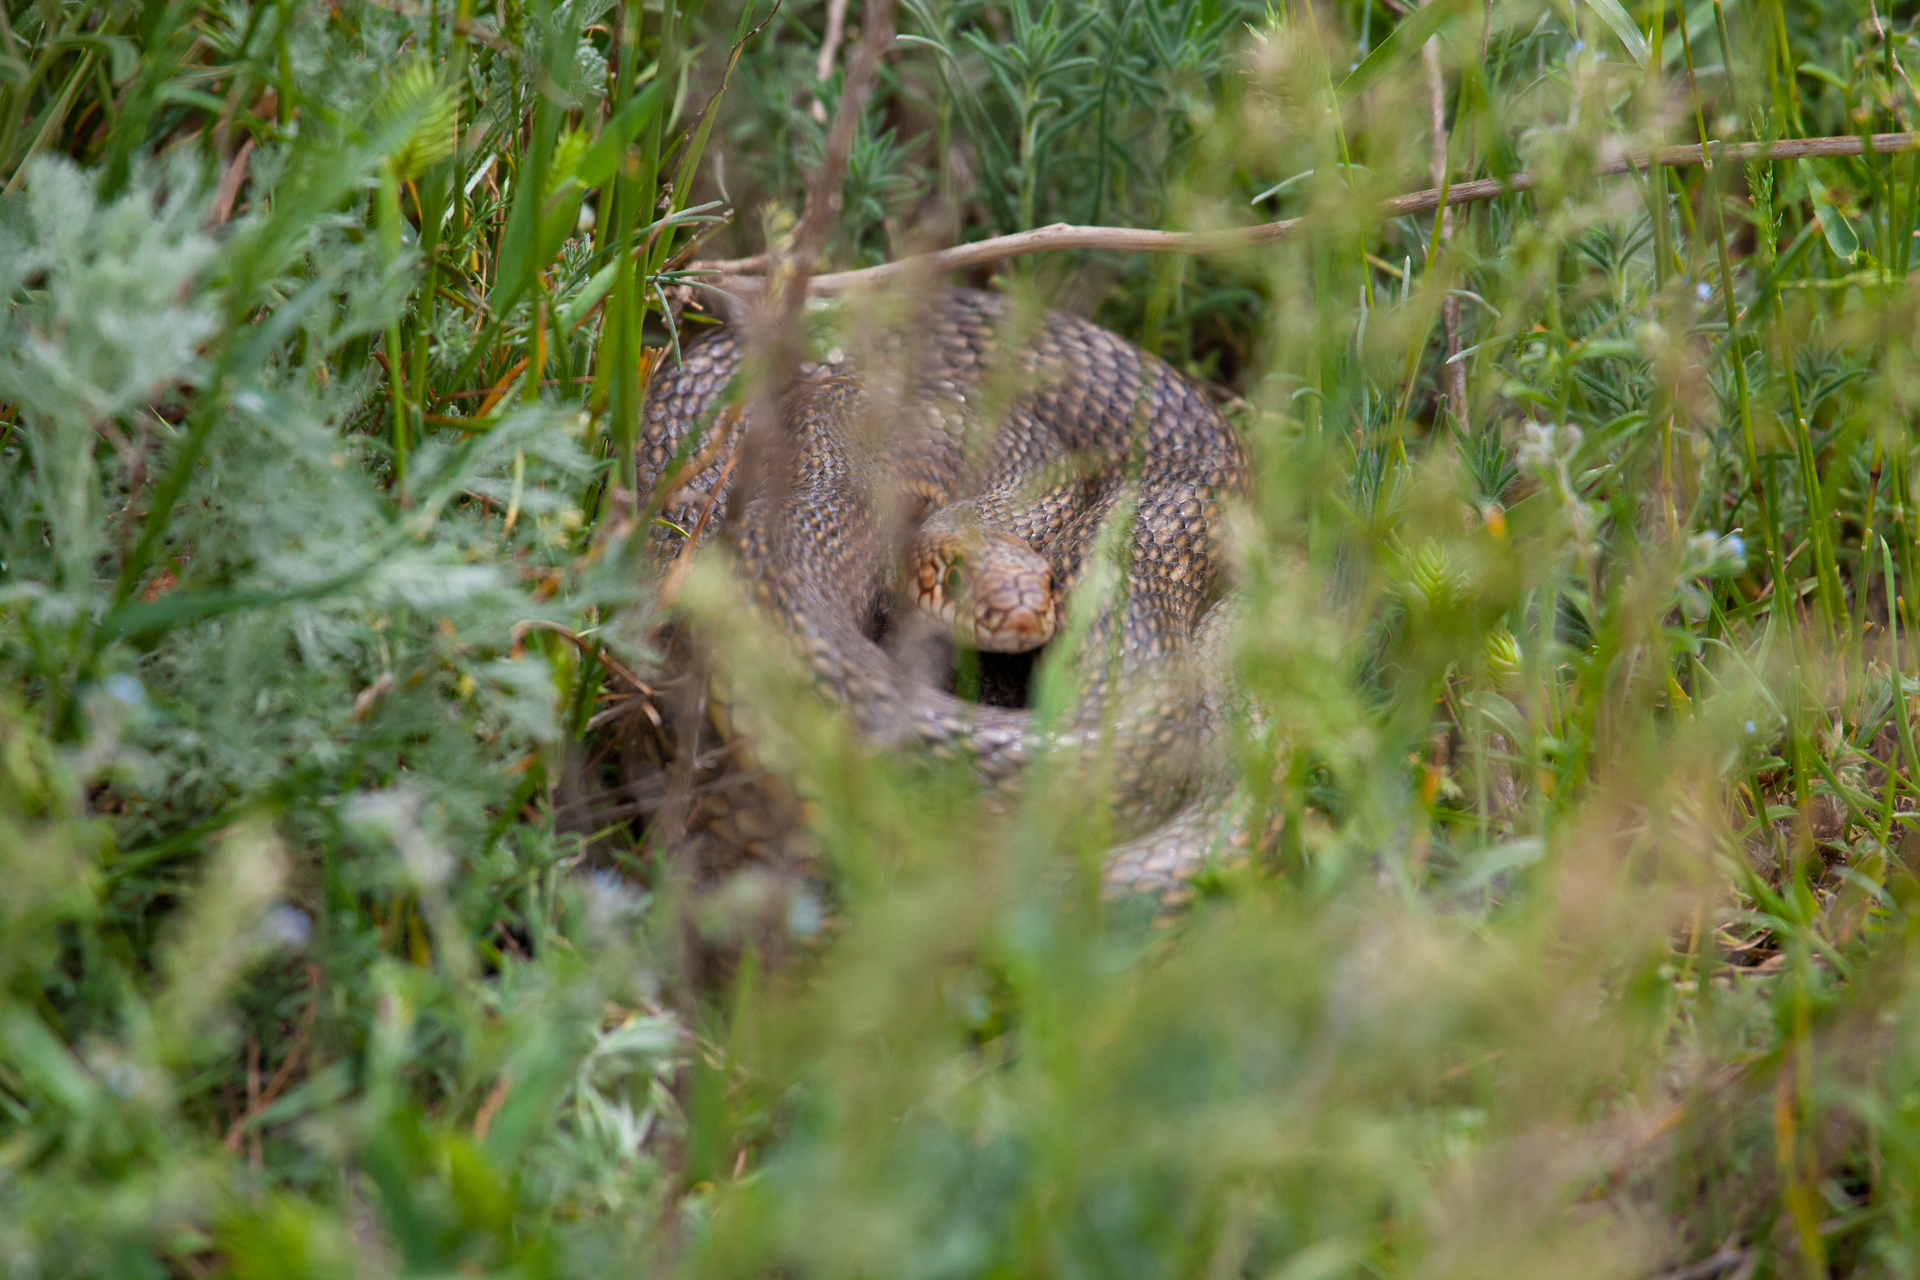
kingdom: Animalia
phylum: Chordata
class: Squamata
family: Colubridae
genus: Dolichophis
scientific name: Dolichophis caspius
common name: Large whip snake
